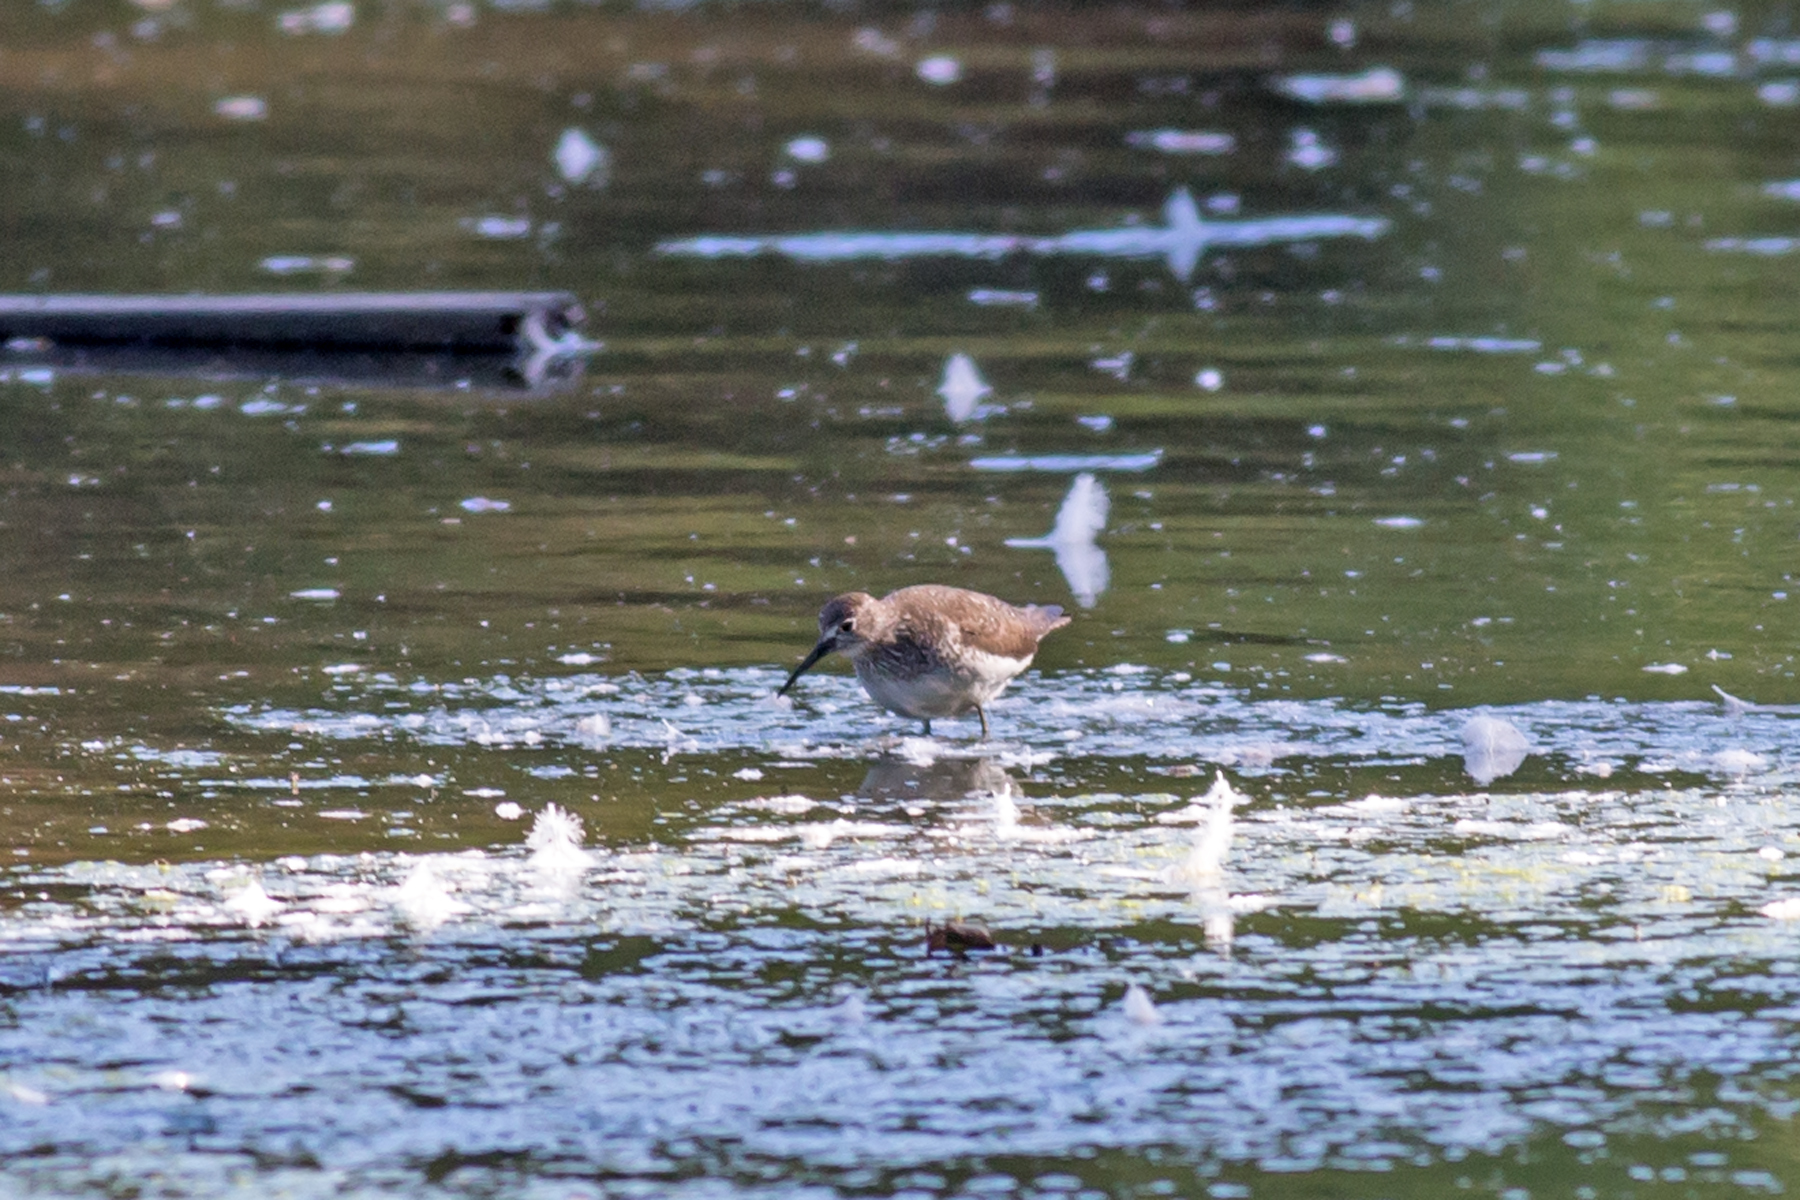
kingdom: Animalia
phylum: Chordata
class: Aves
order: Charadriiformes
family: Scolopacidae
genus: Tringa
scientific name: Tringa solitaria
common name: Solitary sandpiper
